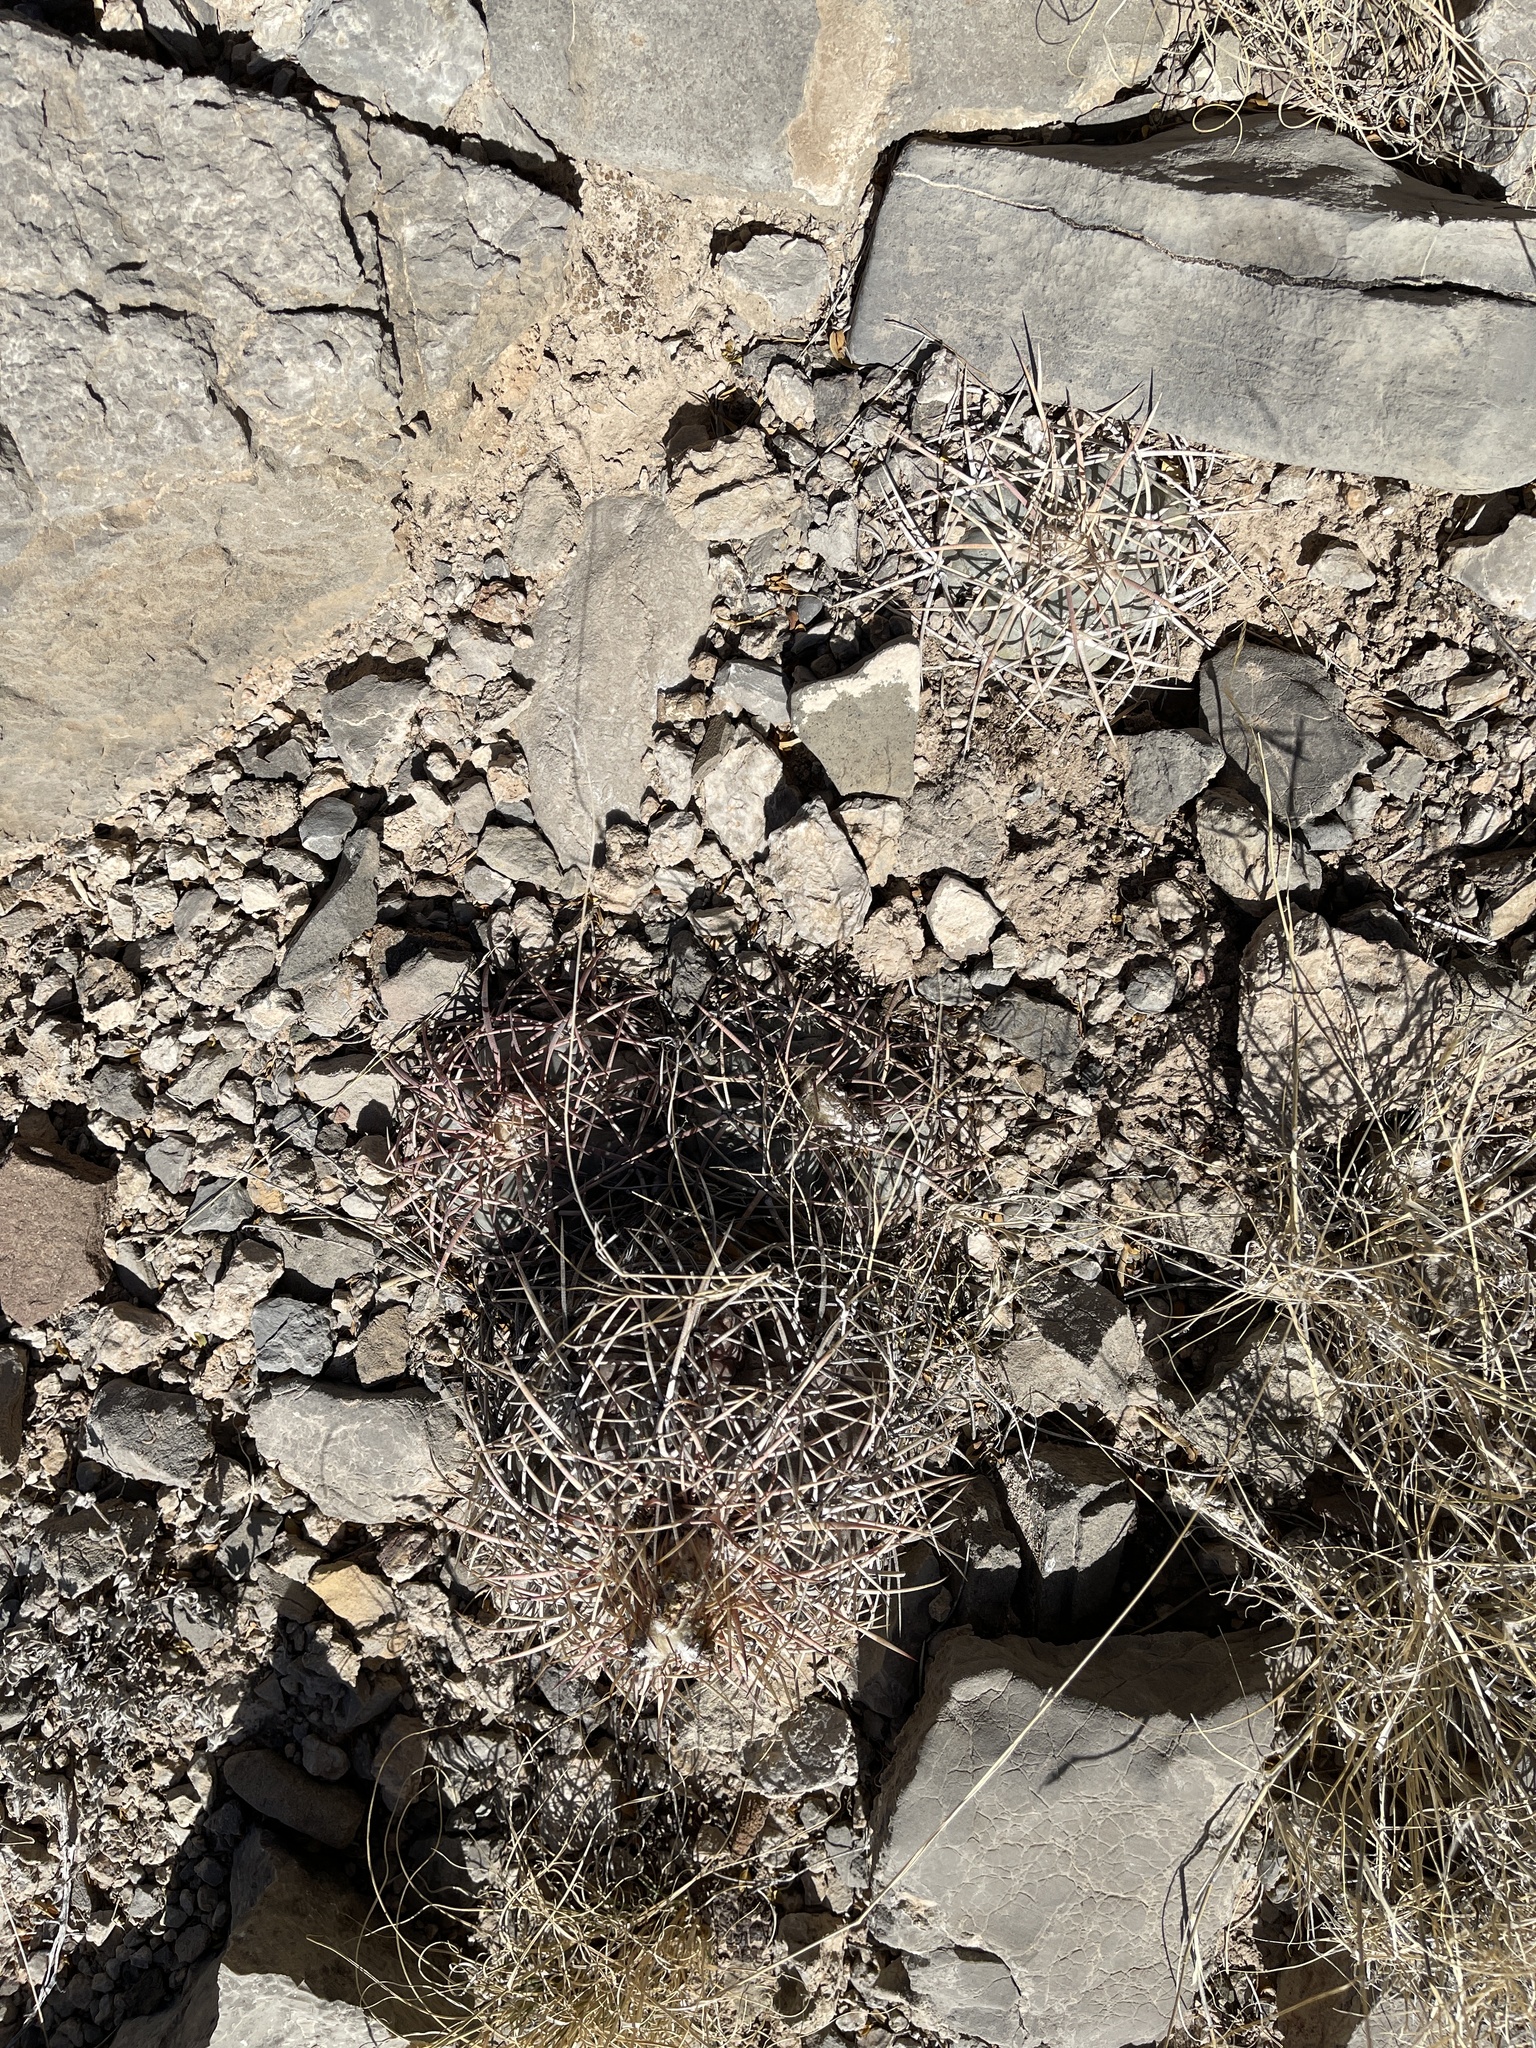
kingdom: Plantae
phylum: Tracheophyta
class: Magnoliopsida
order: Caryophyllales
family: Cactaceae
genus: Echinocactus
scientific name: Echinocactus horizonthalonius
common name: Devilshead
